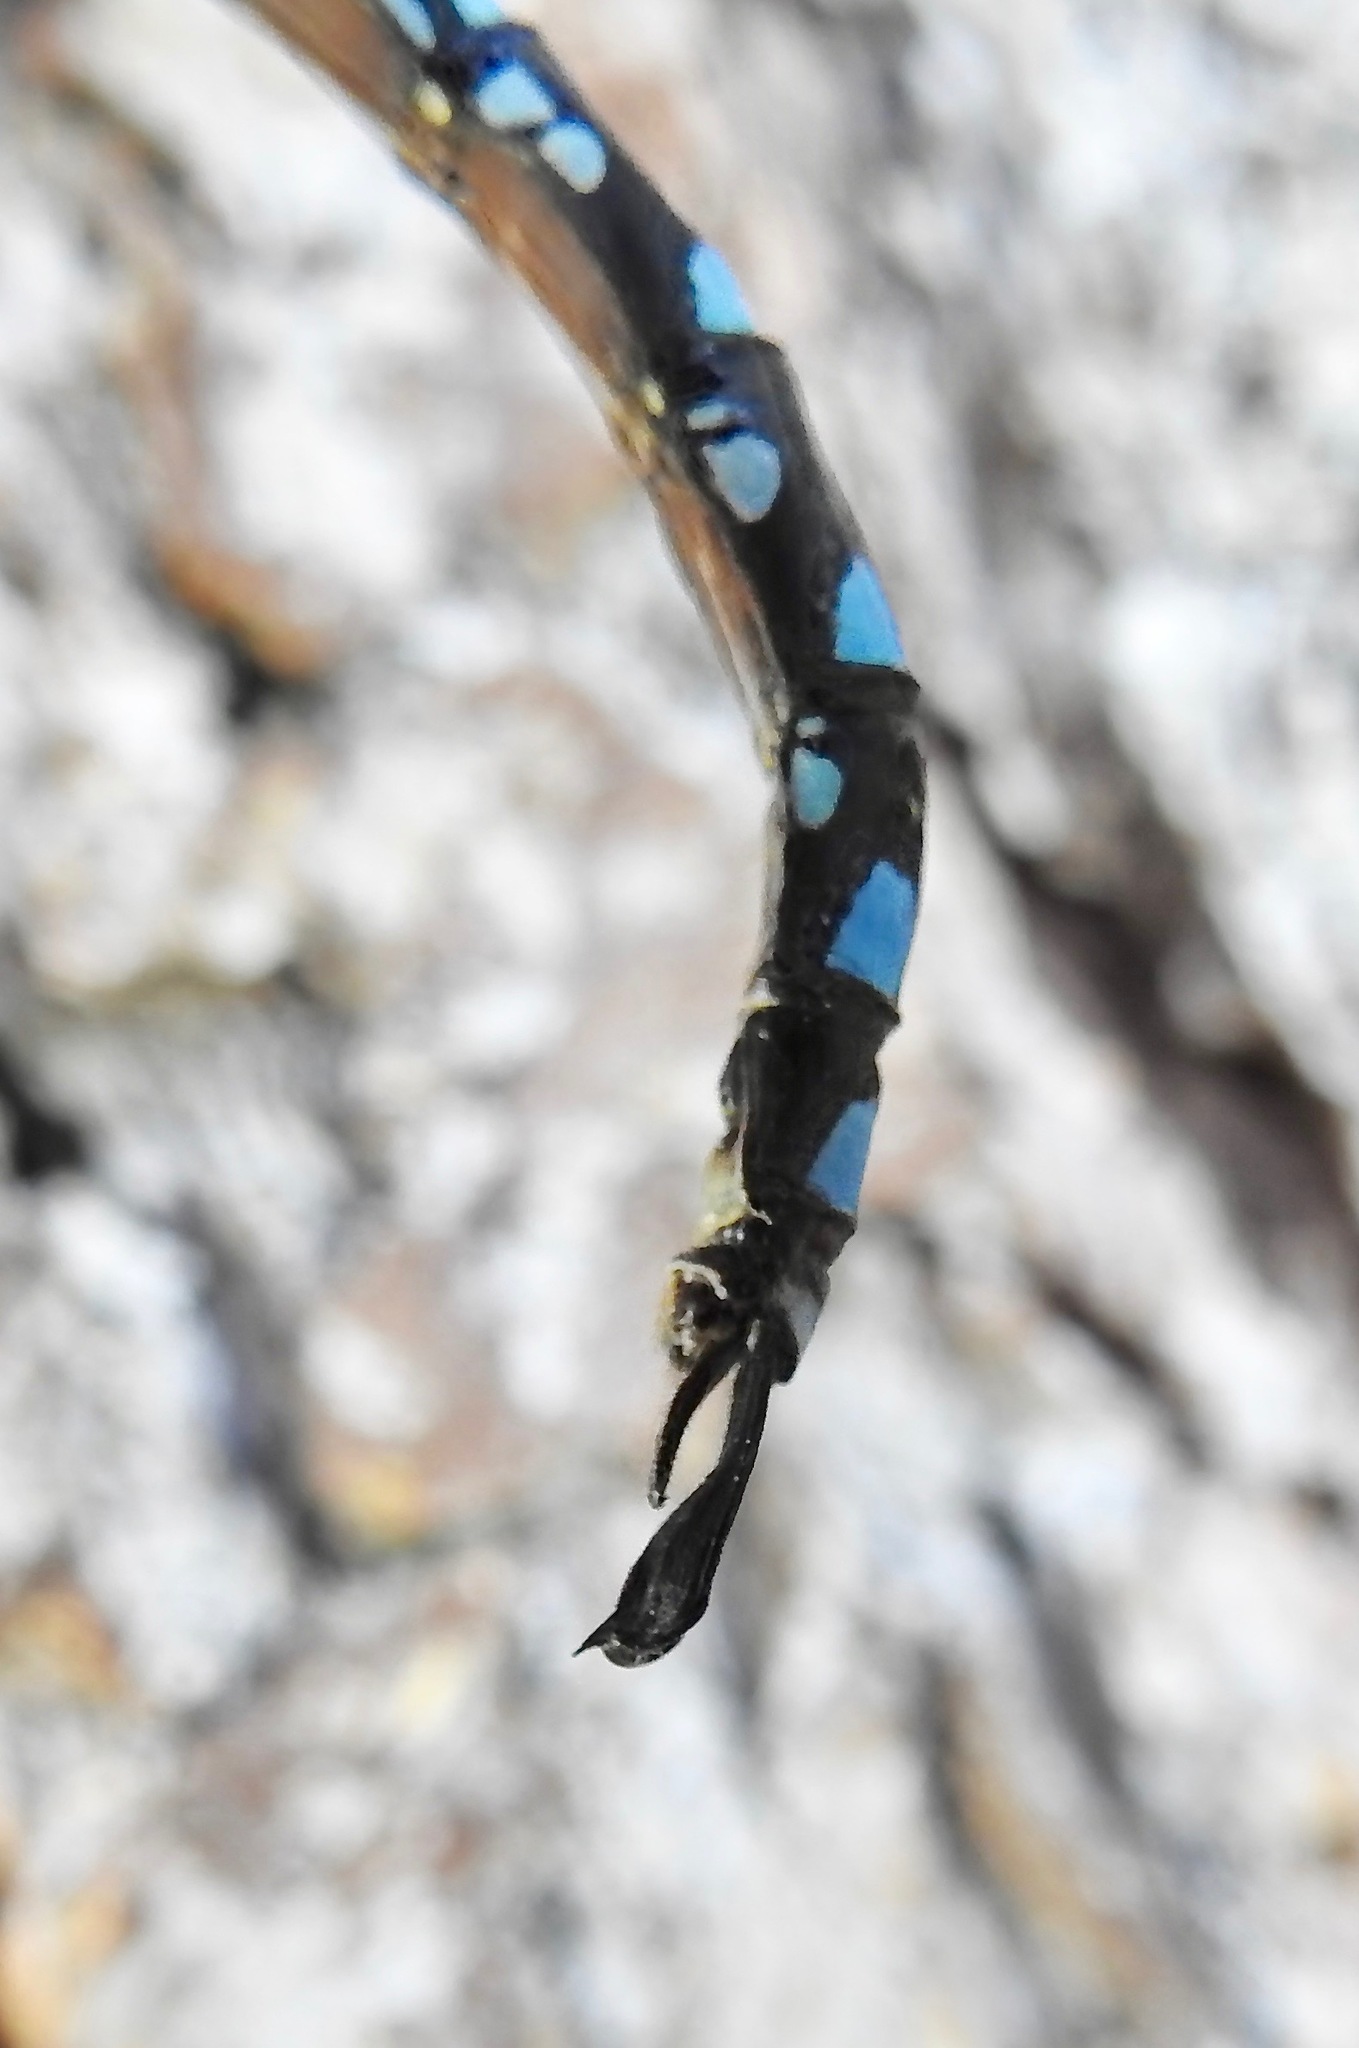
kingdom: Animalia
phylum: Arthropoda
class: Insecta
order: Odonata
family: Aeshnidae
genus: Aeshna
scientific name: Aeshna palmata
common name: Paddle-tailed darner
